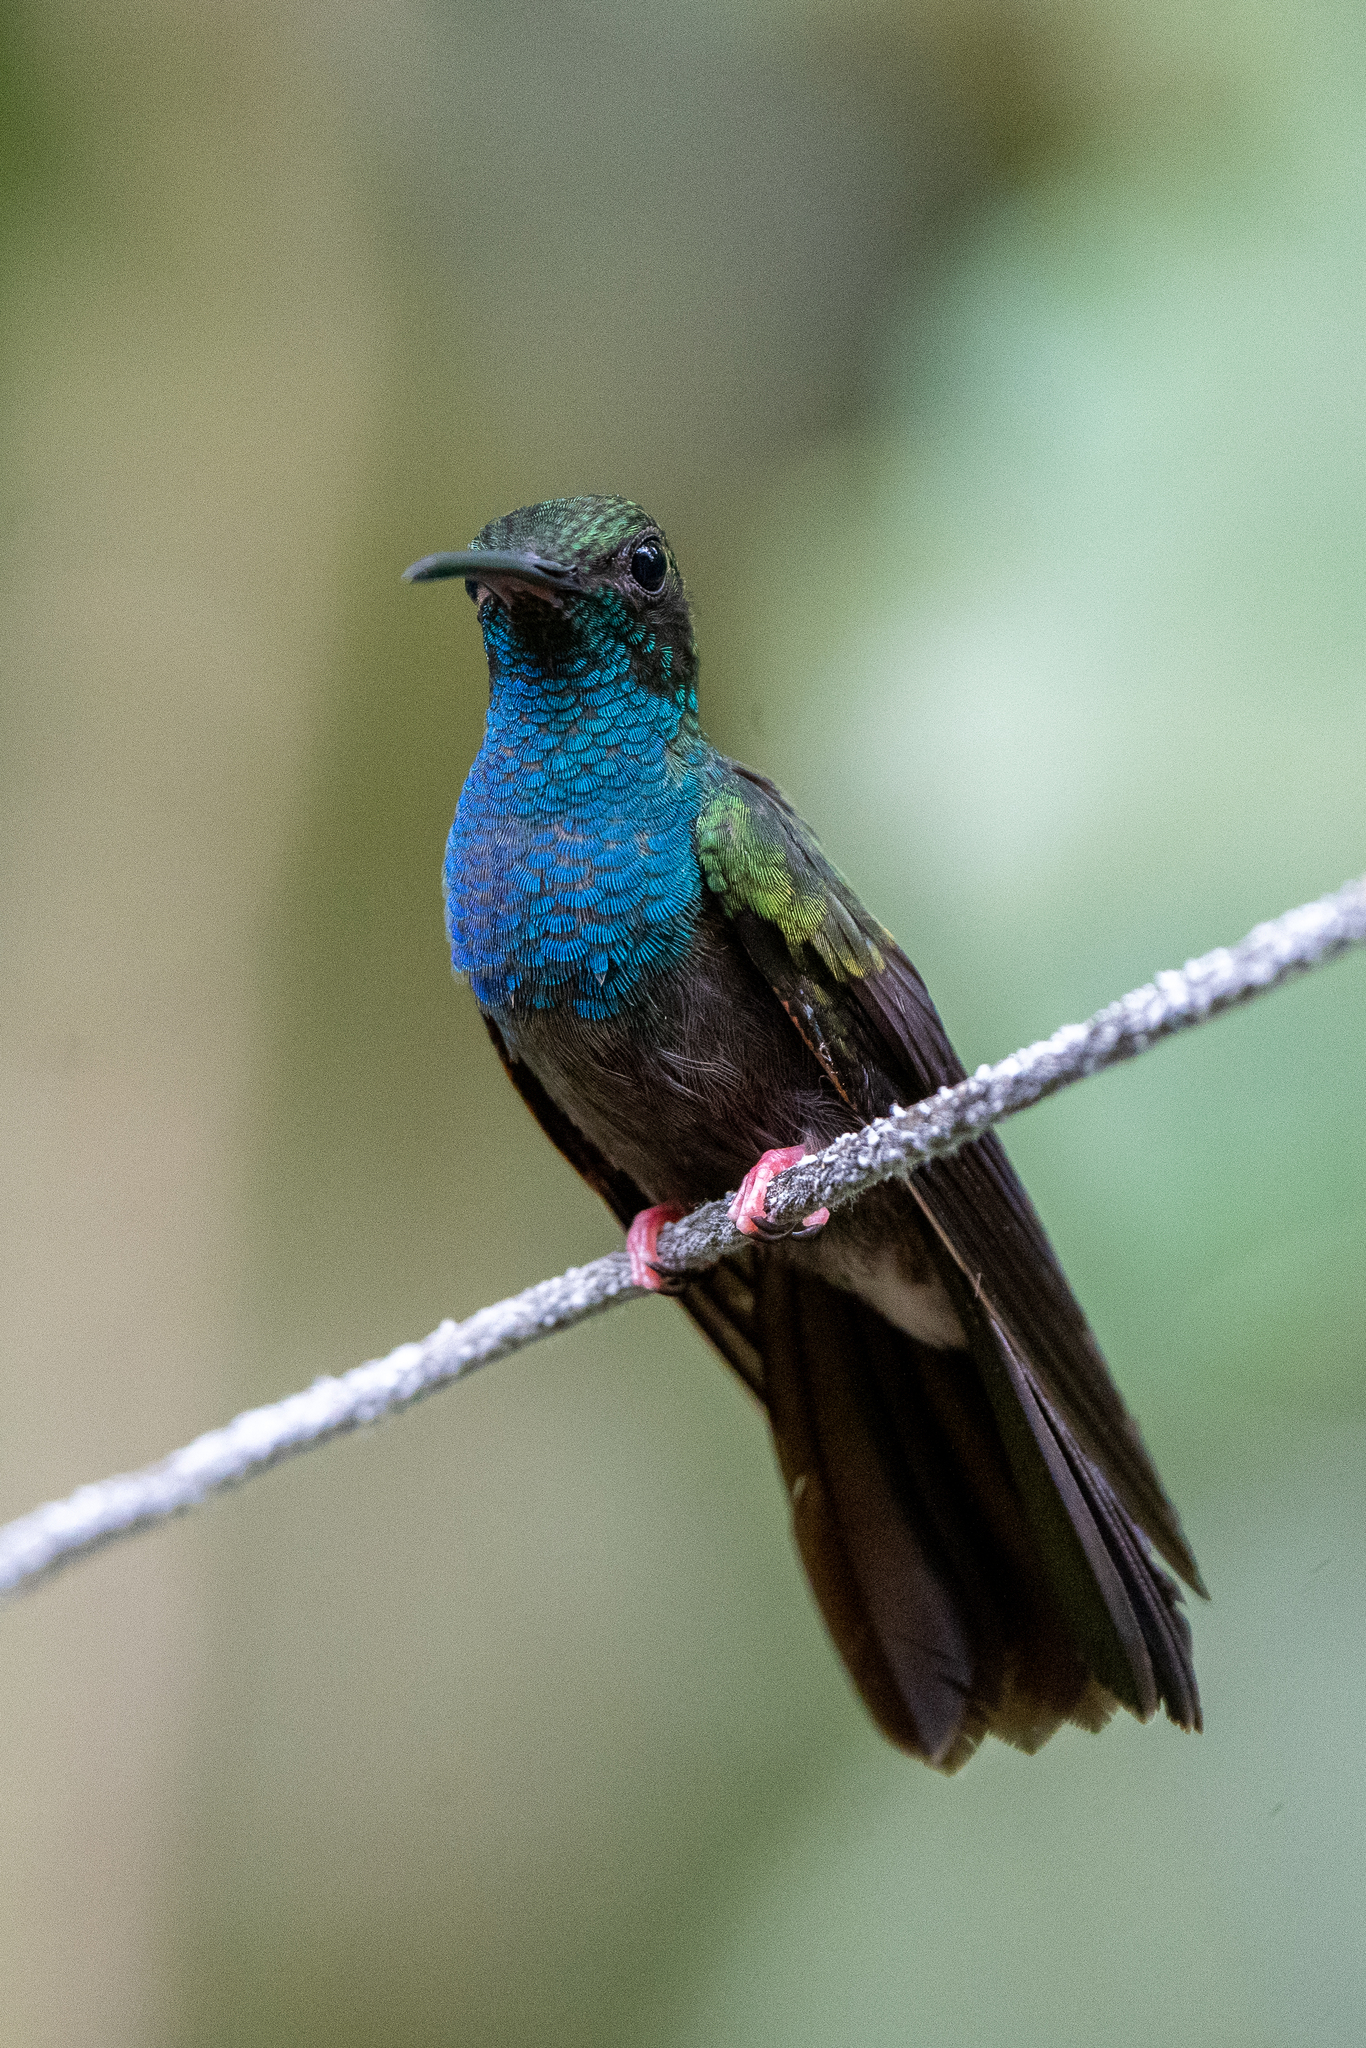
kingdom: Animalia
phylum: Chordata
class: Aves
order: Apodiformes
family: Trochilidae
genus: Chalybura
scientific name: Chalybura urochrysia
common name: Bronze-tailed plumeleteer
